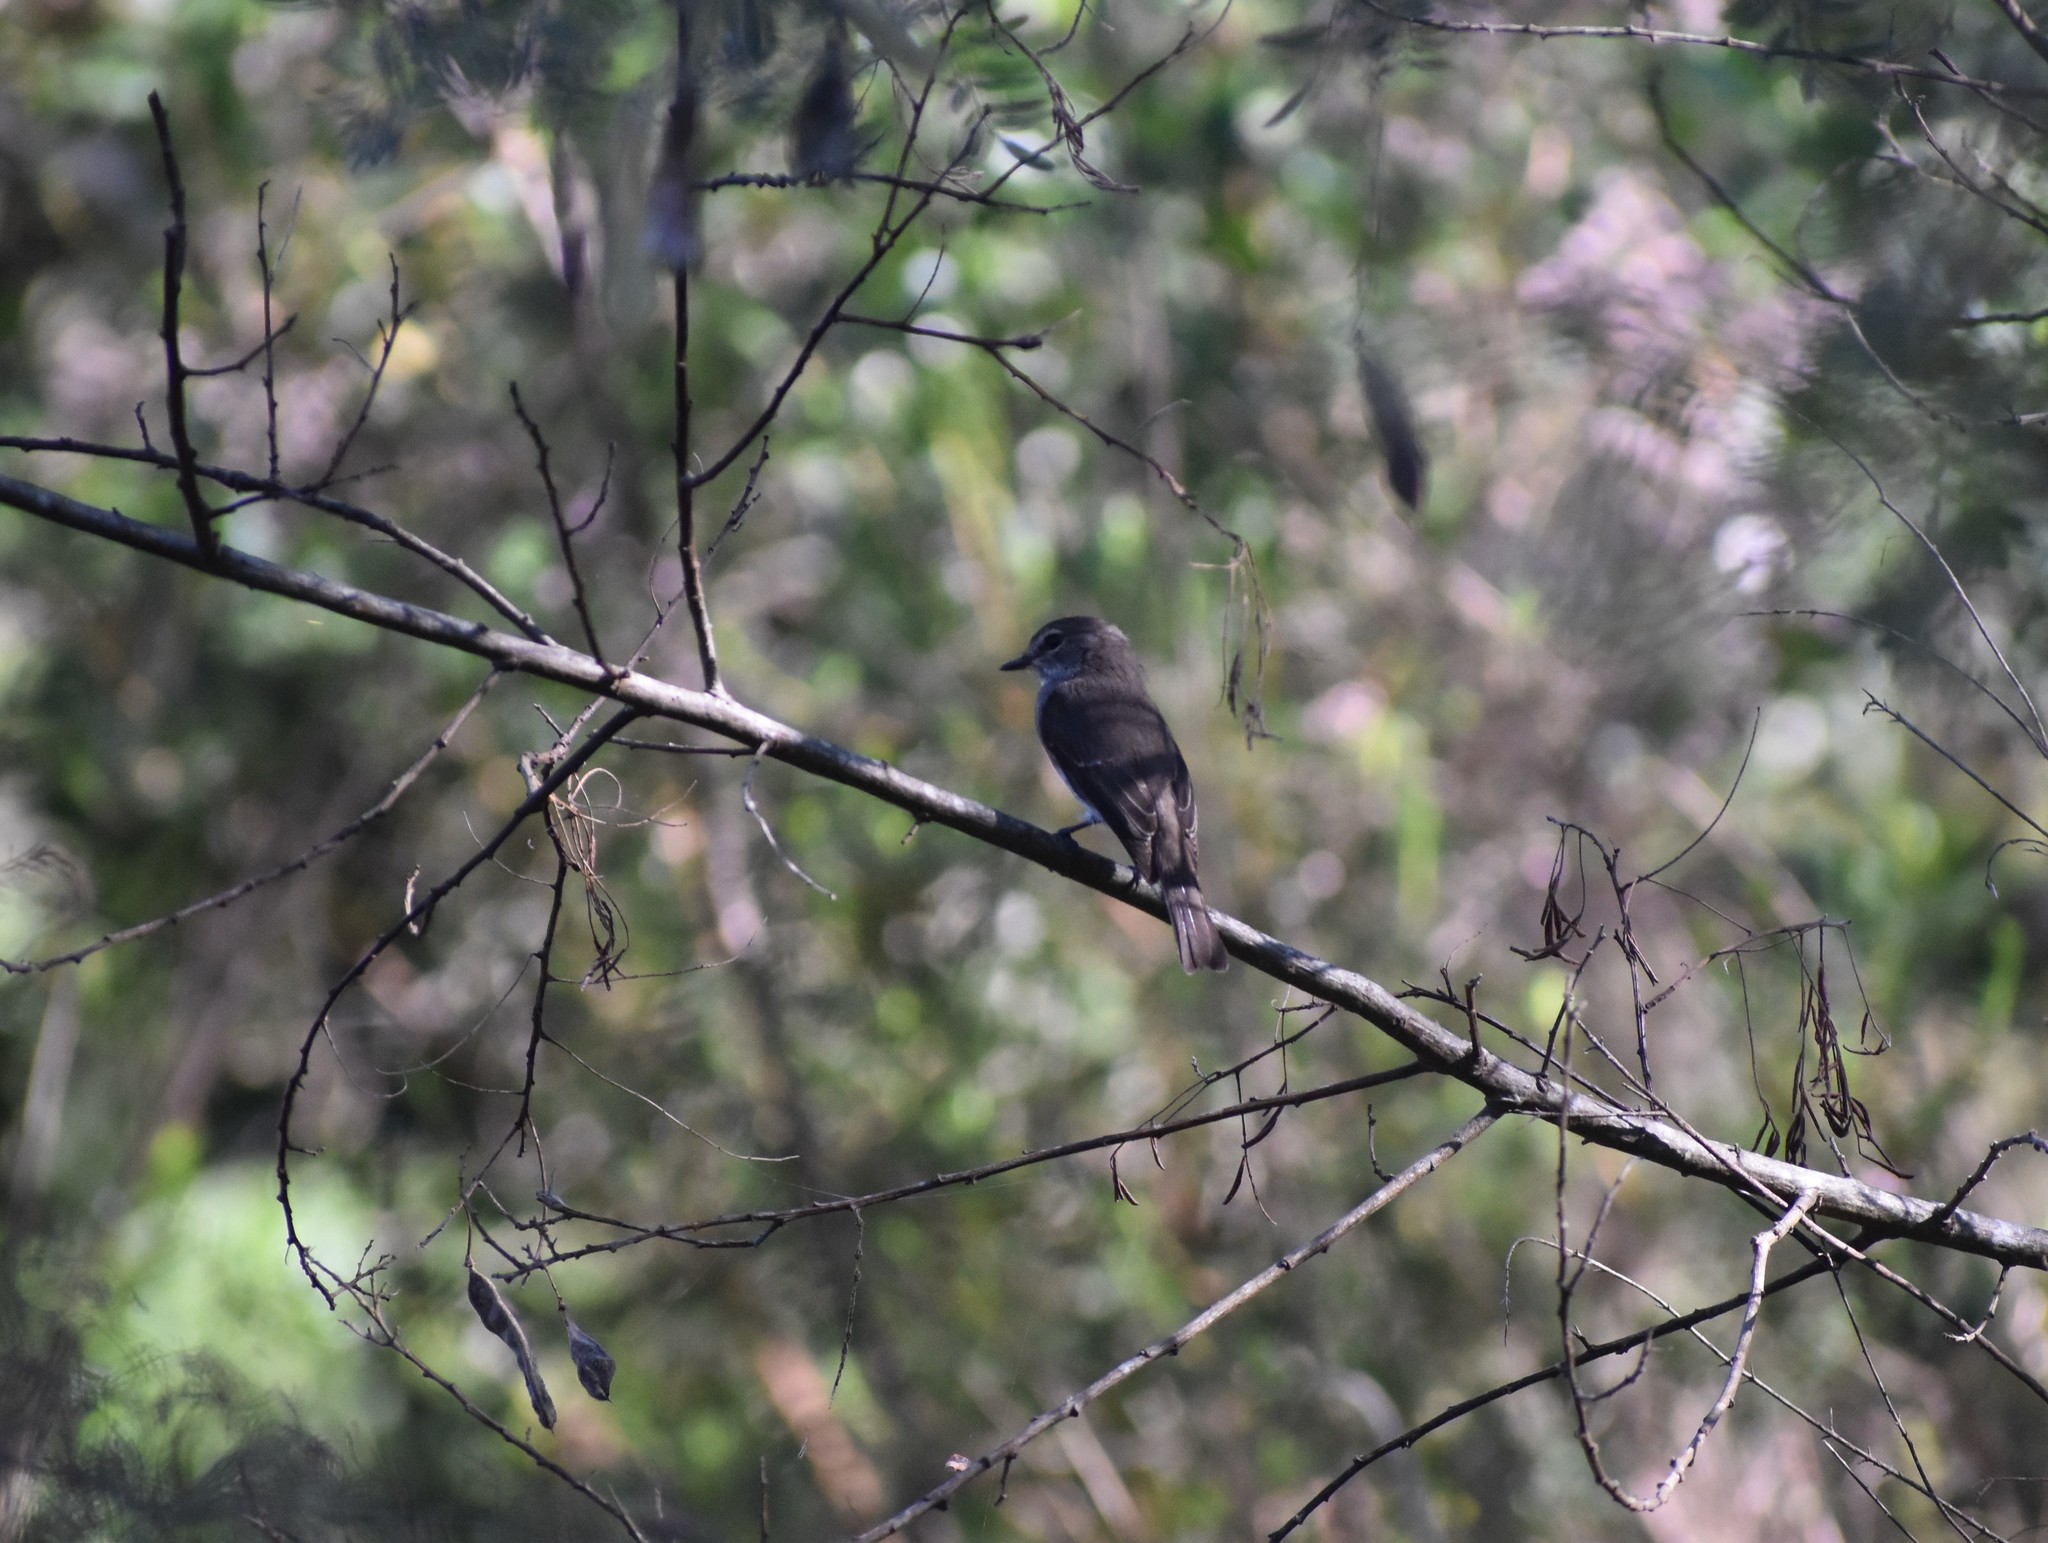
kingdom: Animalia
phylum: Chordata
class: Aves
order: Passeriformes
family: Muscicapidae
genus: Muscicapa
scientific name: Muscicapa adusta
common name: African dusky flycatcher
